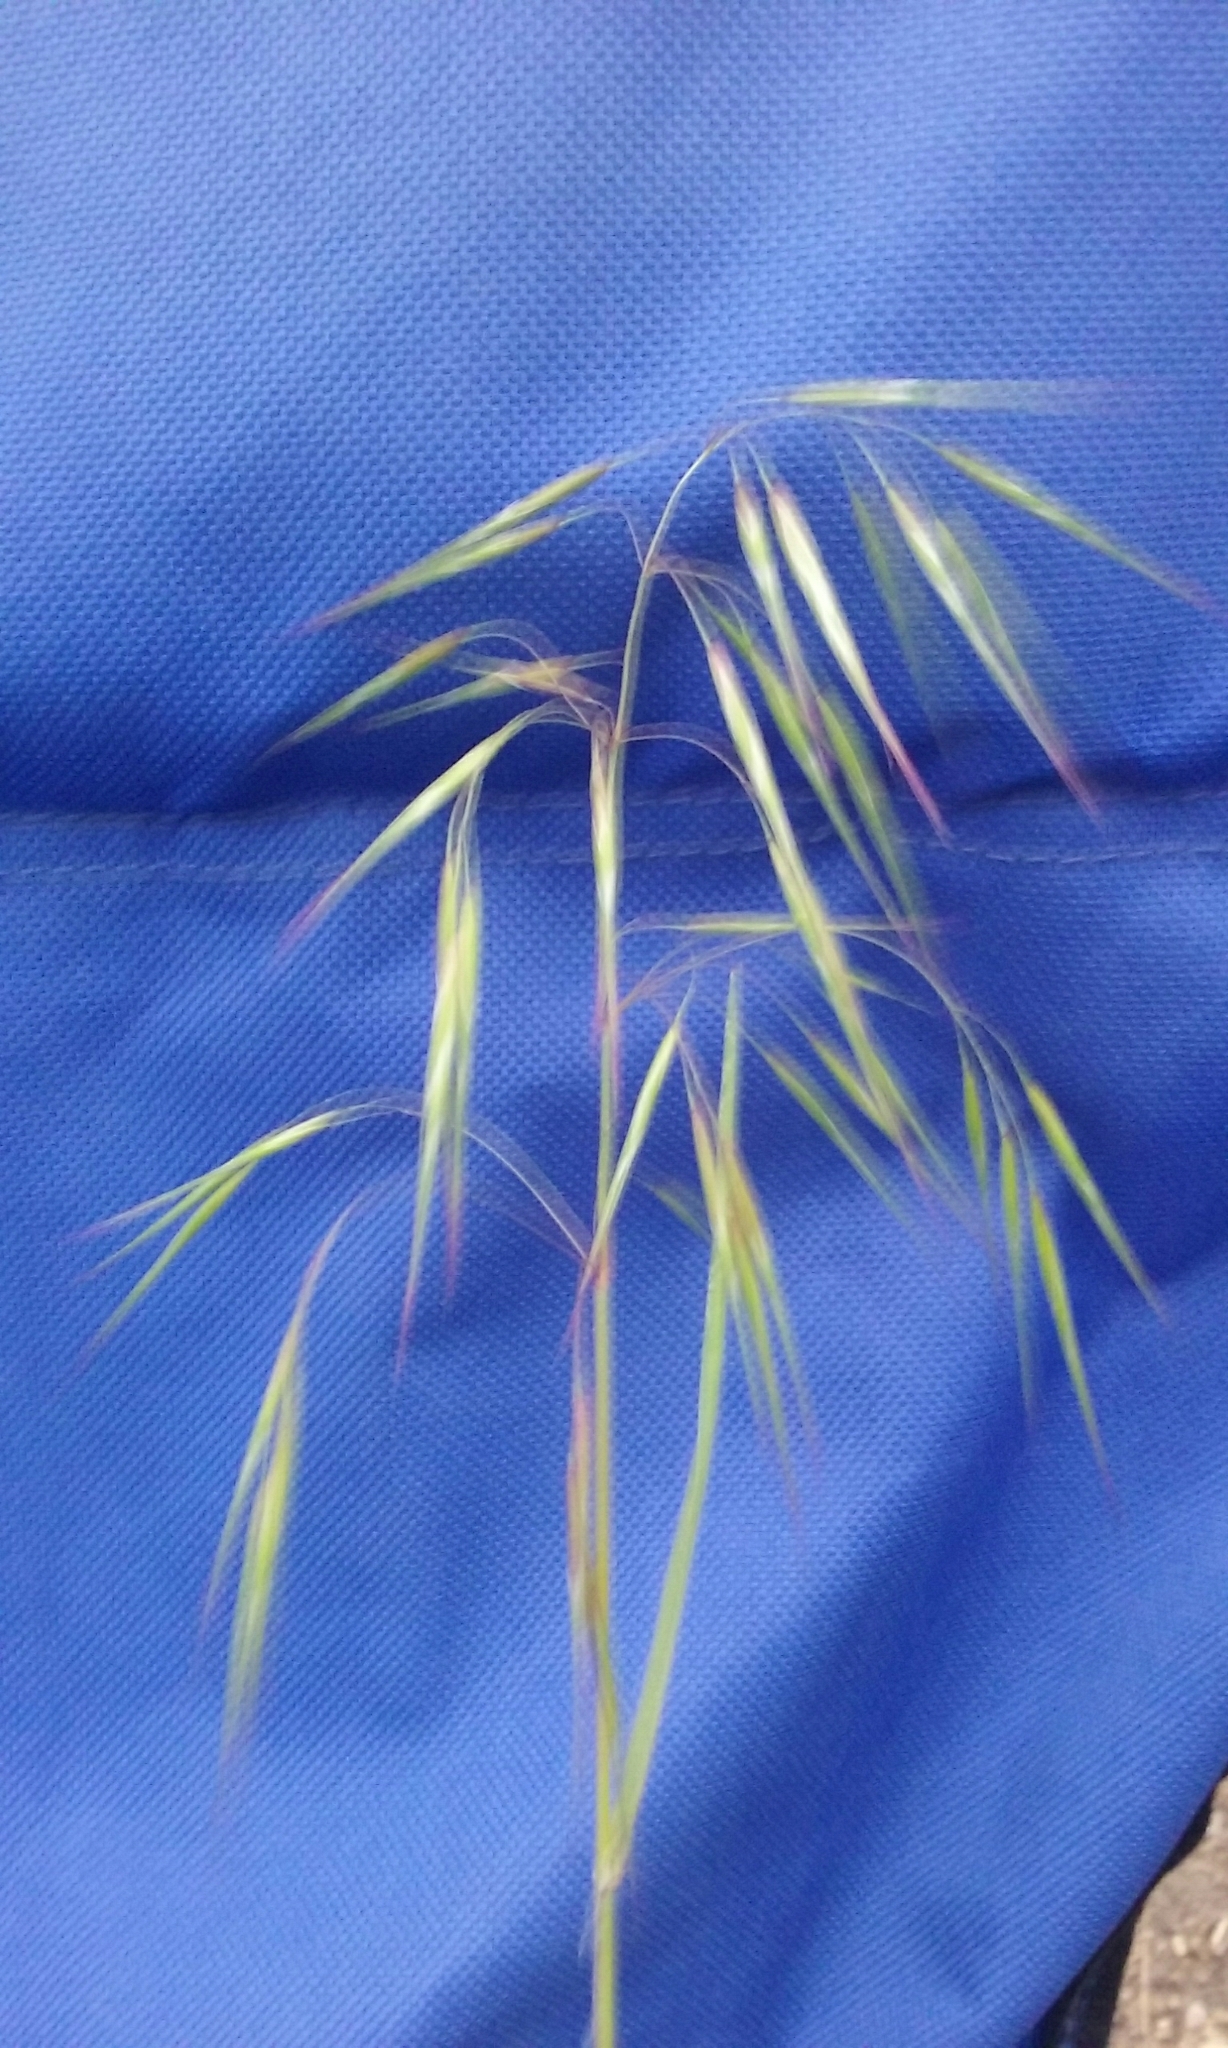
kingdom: Plantae
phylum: Tracheophyta
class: Liliopsida
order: Poales
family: Poaceae
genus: Bromus
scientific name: Bromus tectorum
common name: Cheatgrass
